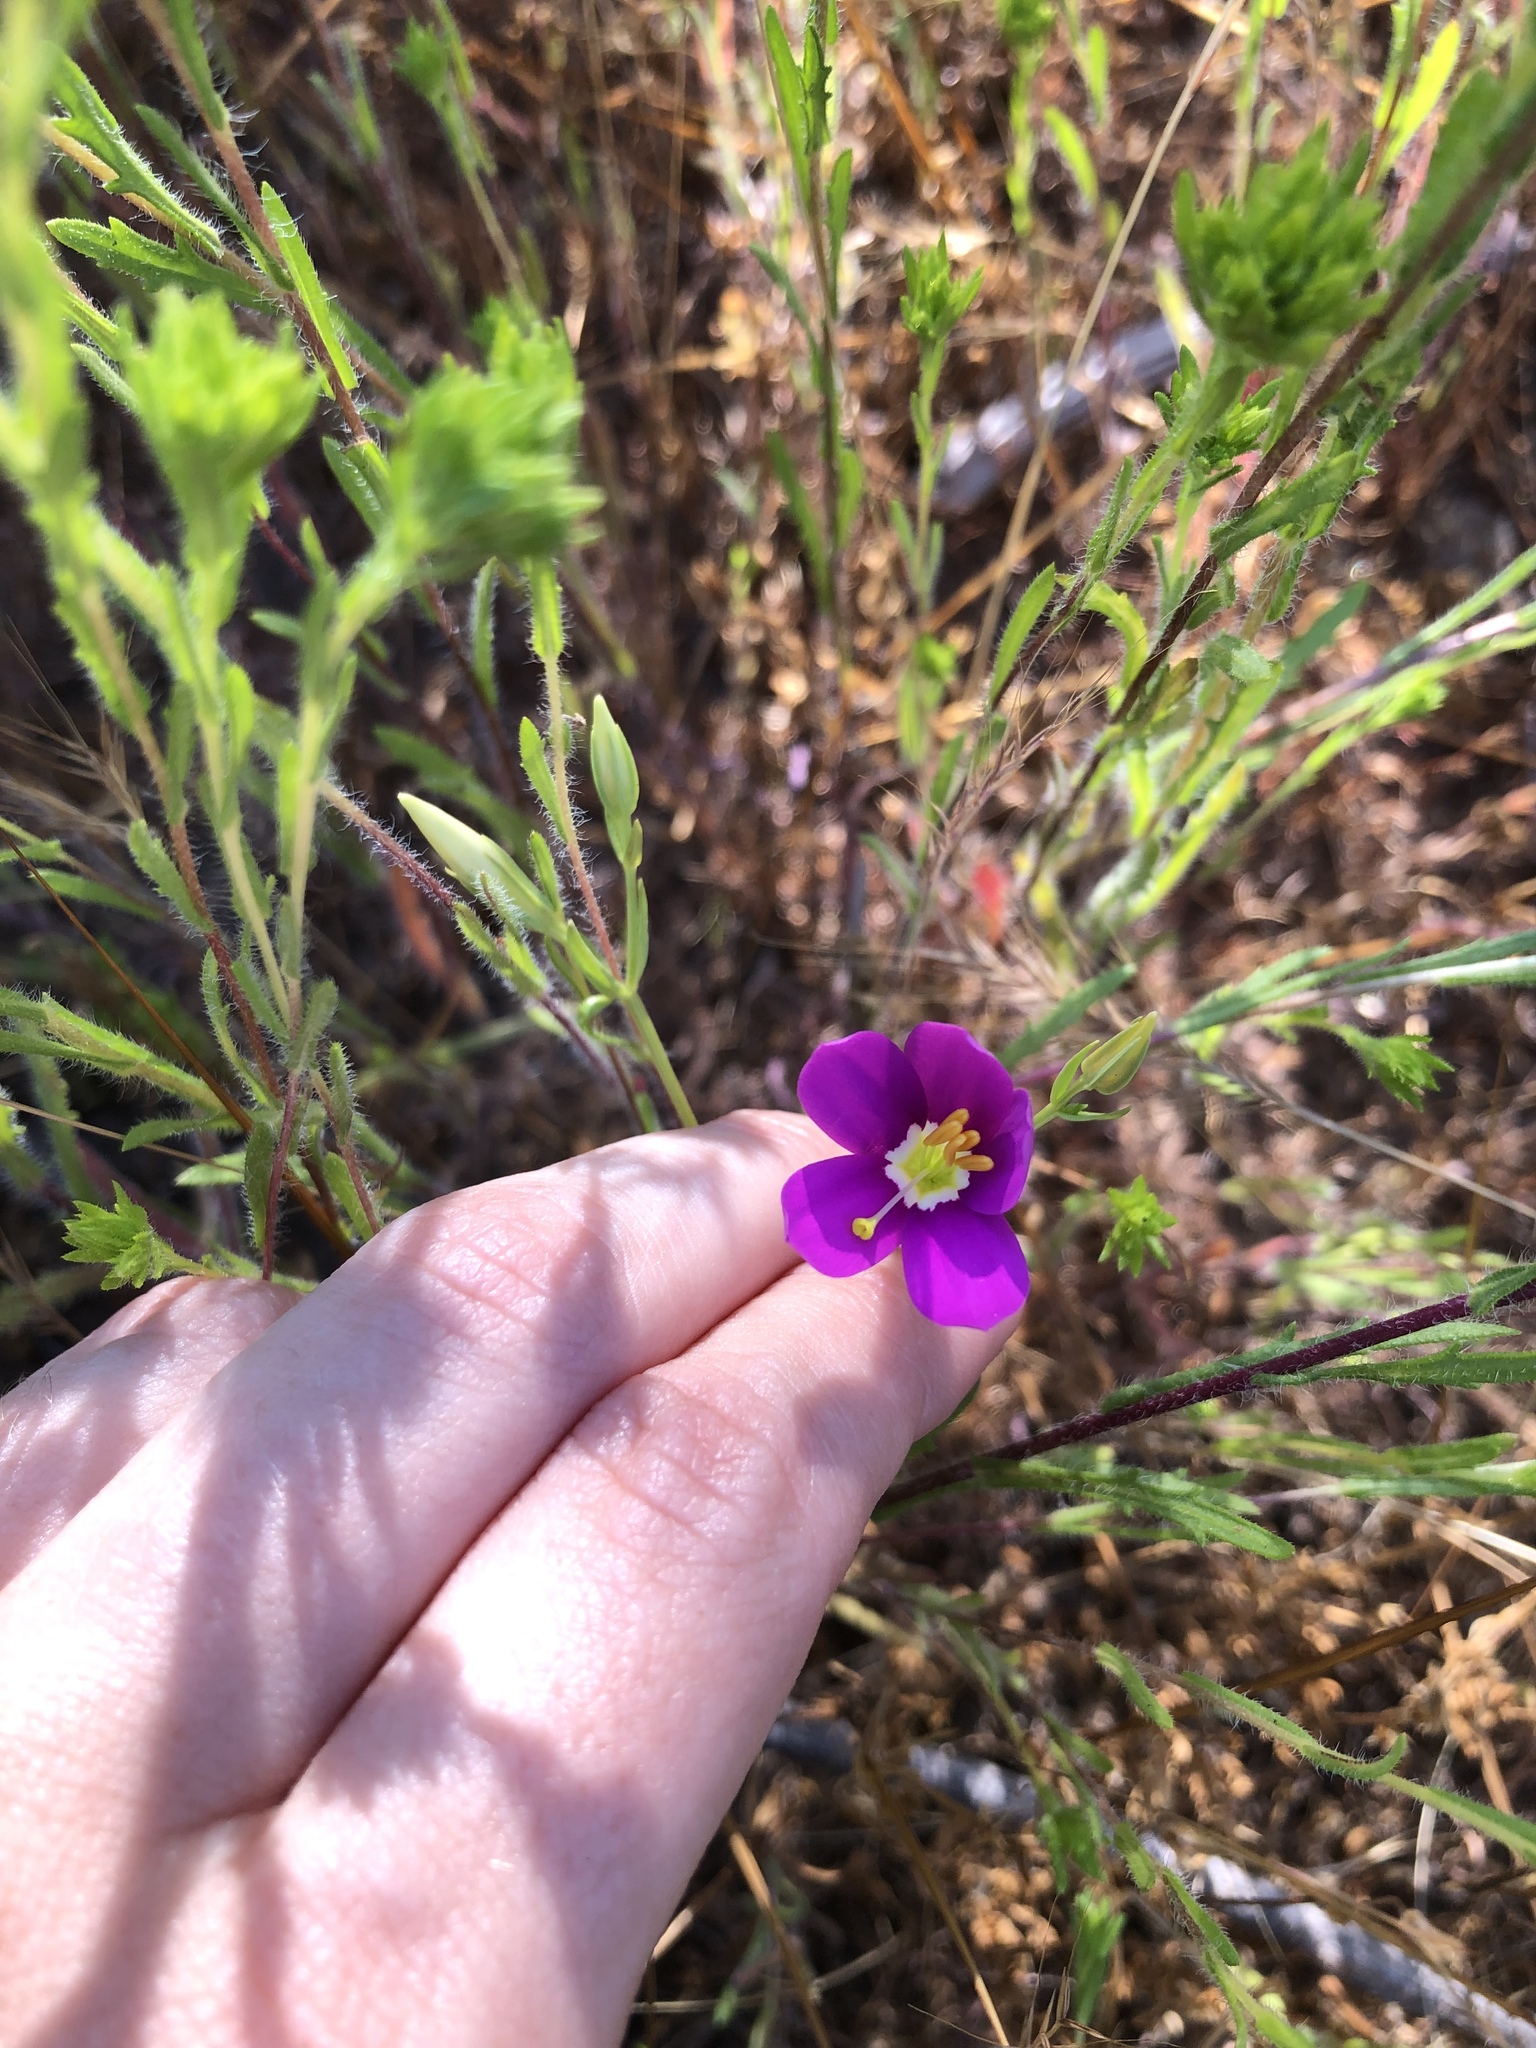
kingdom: Plantae
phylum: Tracheophyta
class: Magnoliopsida
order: Gentianales
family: Gentianaceae
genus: Zeltnera
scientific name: Zeltnera venusta
